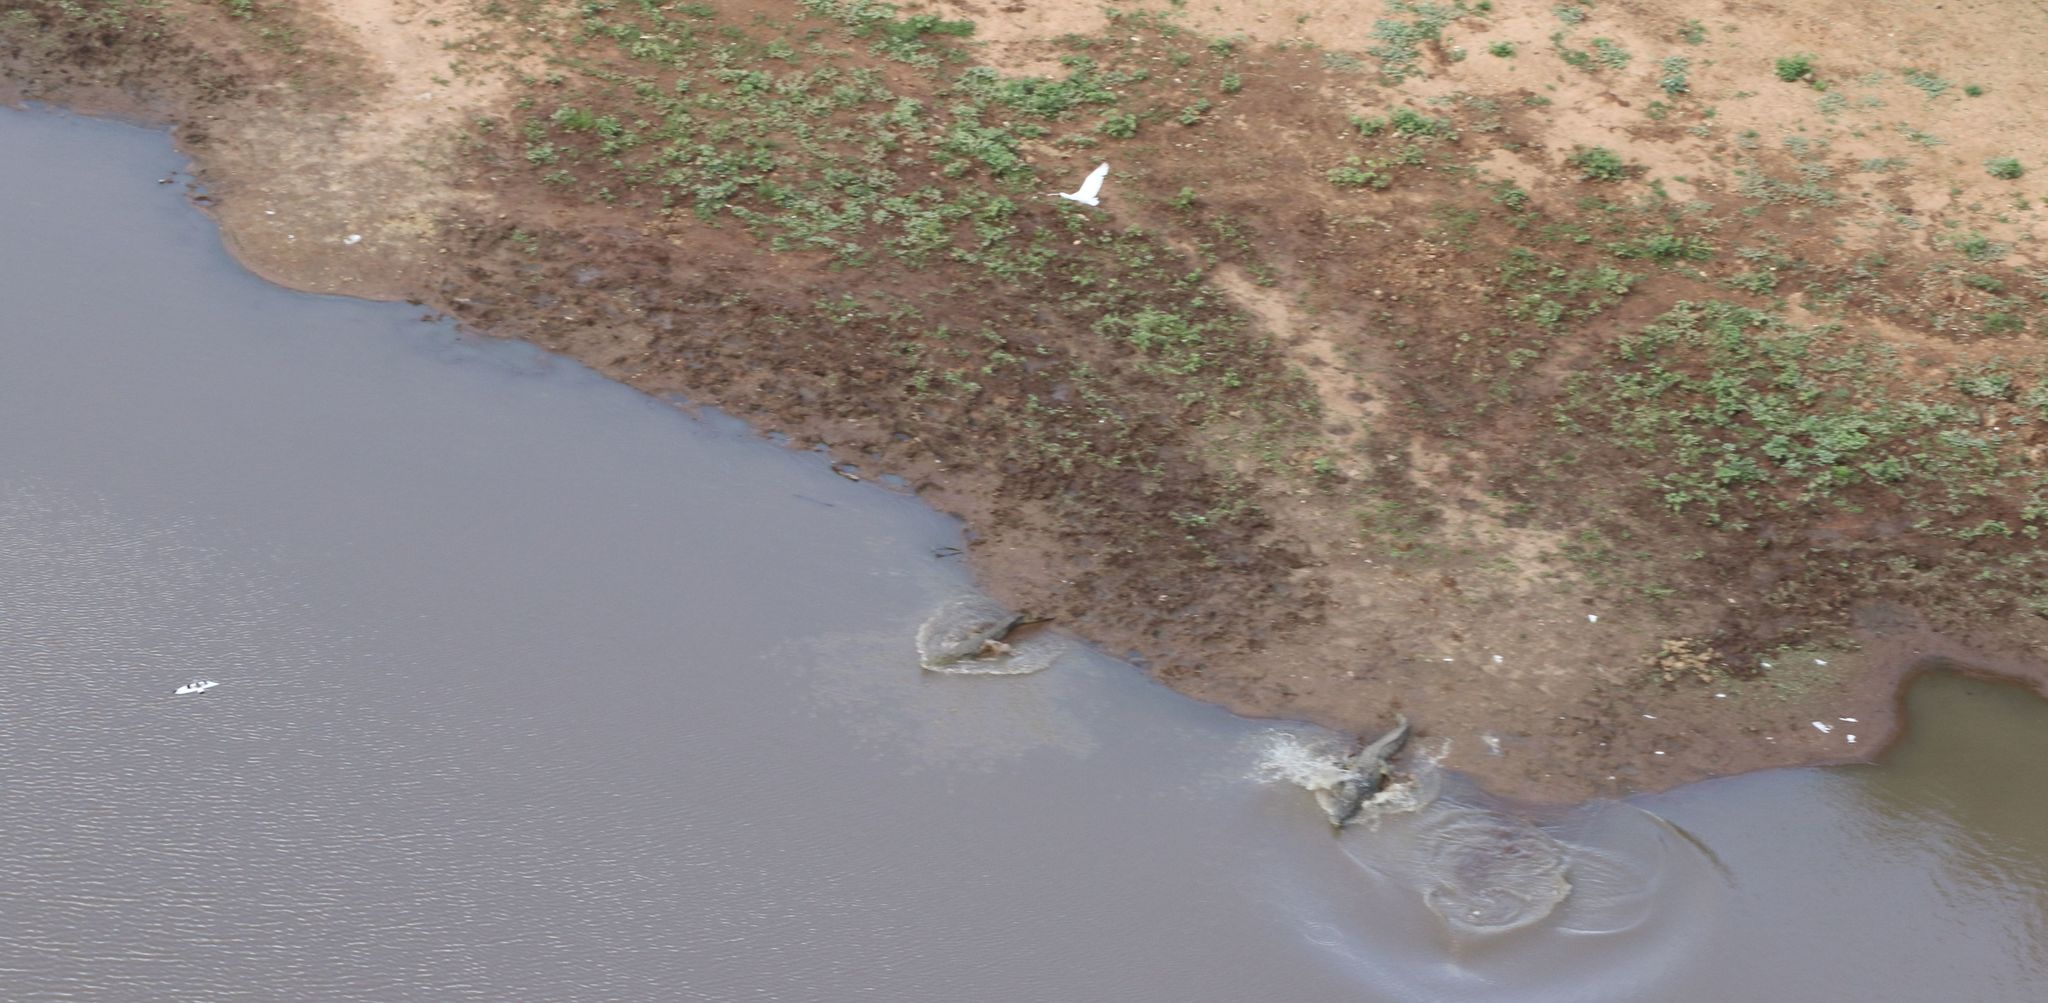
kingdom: Animalia
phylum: Chordata
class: Crocodylia
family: Crocodylidae
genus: Crocodylus
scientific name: Crocodylus niloticus
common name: Nile crocodile
